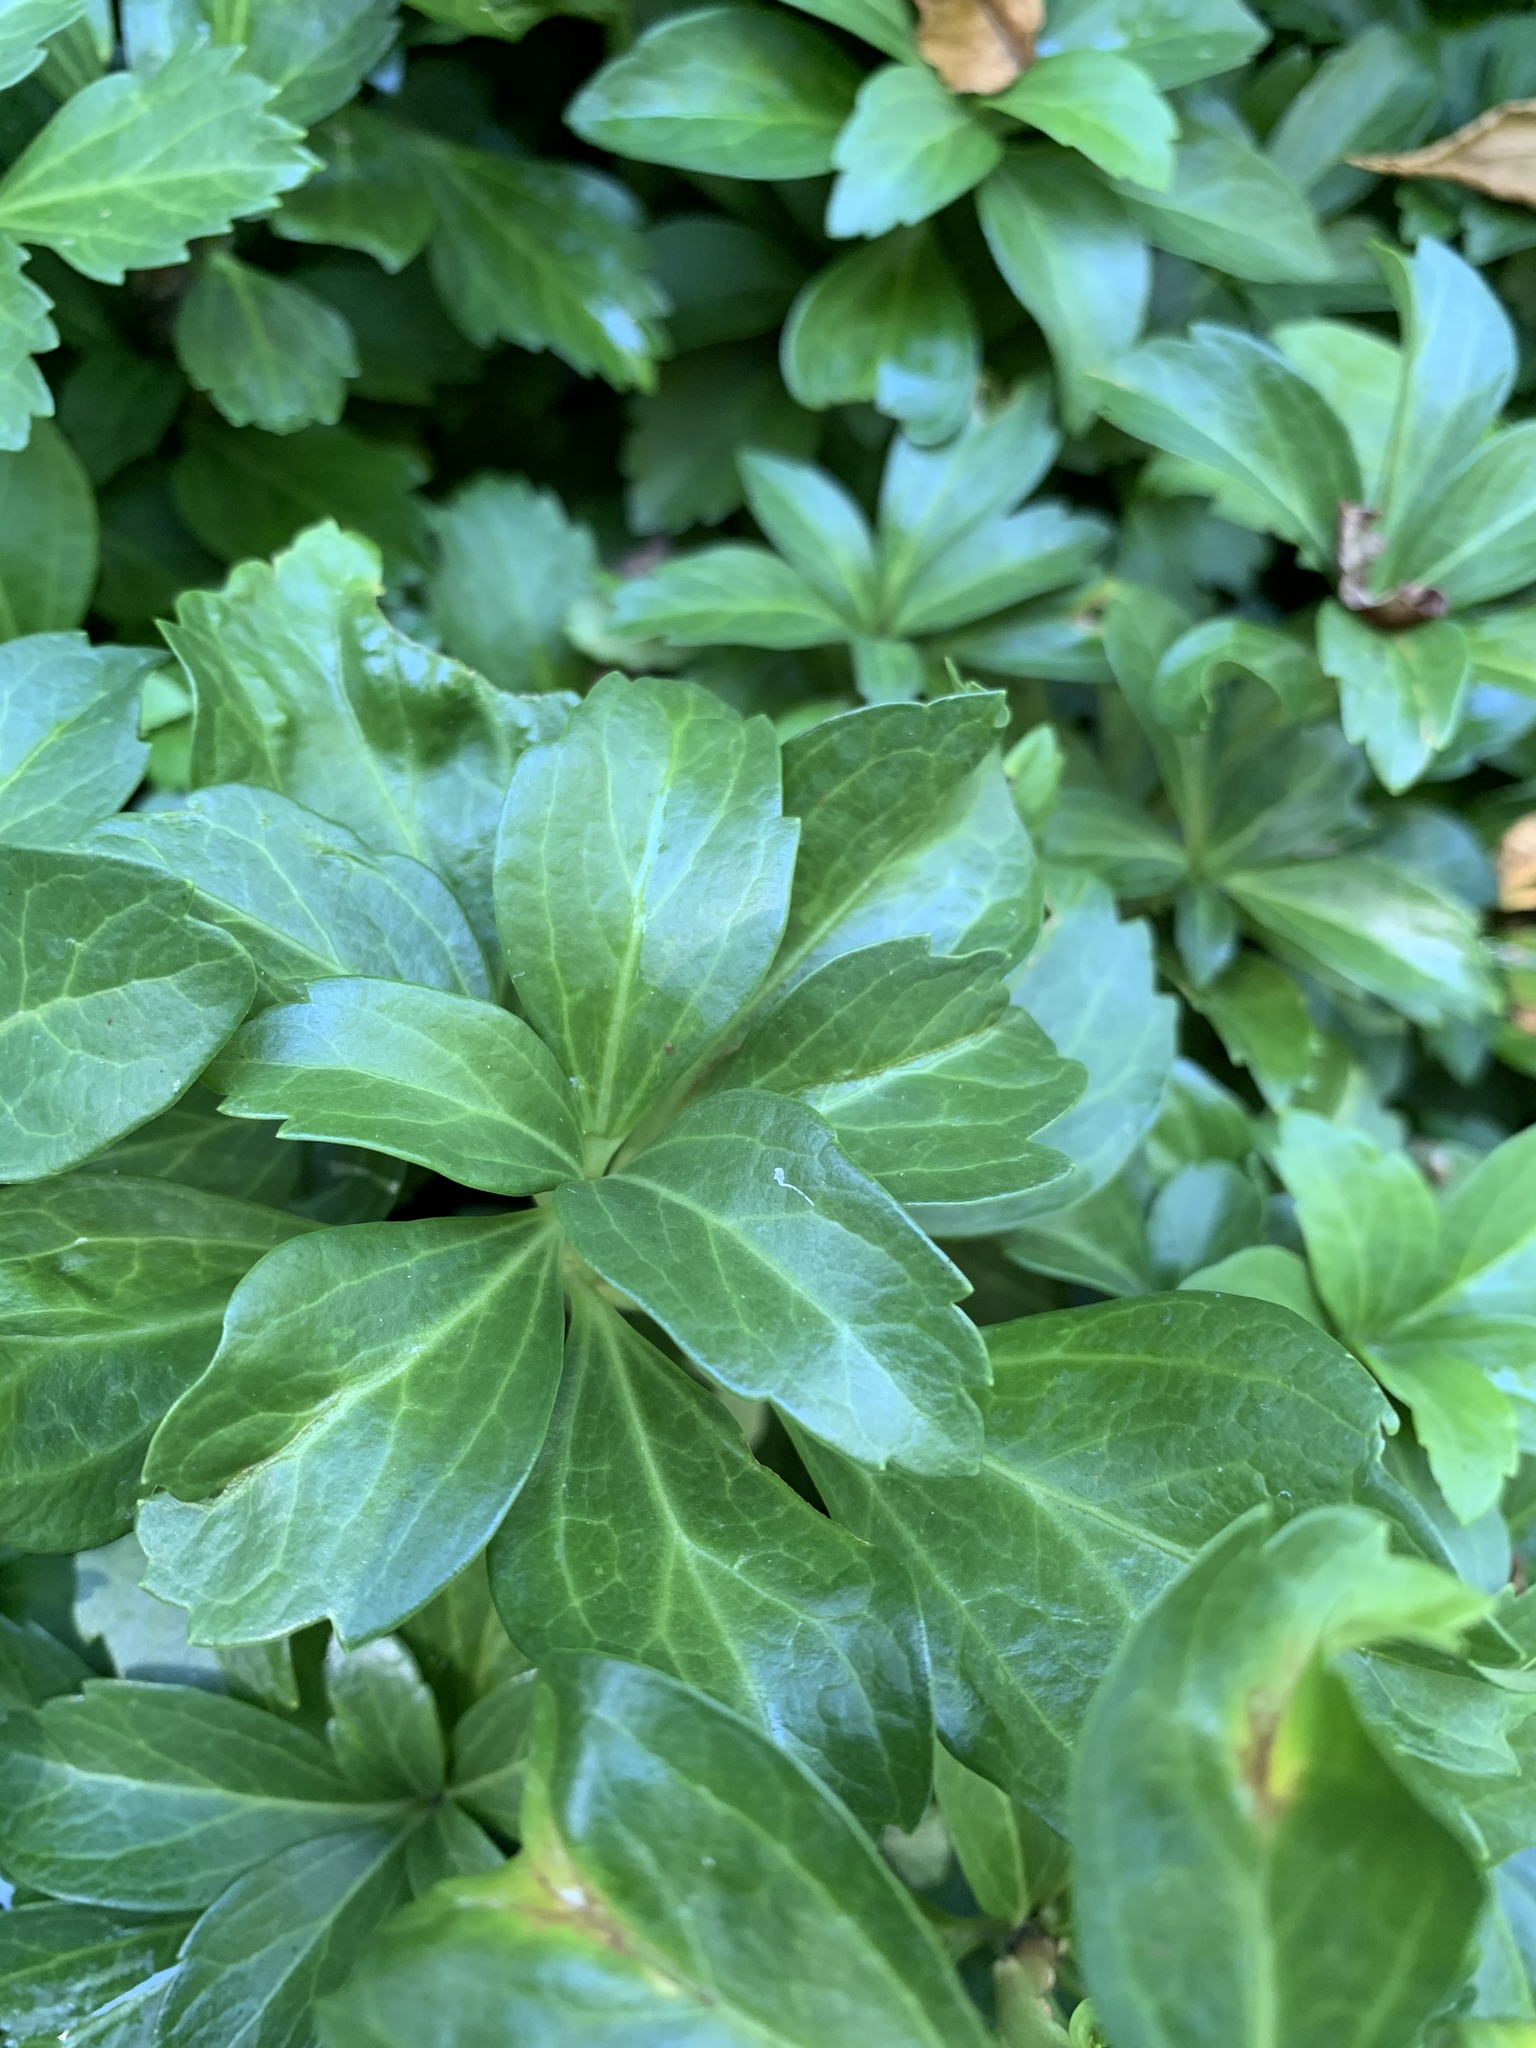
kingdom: Plantae
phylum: Tracheophyta
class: Magnoliopsida
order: Buxales
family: Buxaceae
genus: Pachysandra
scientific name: Pachysandra terminalis
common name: Japanese pachysandra
